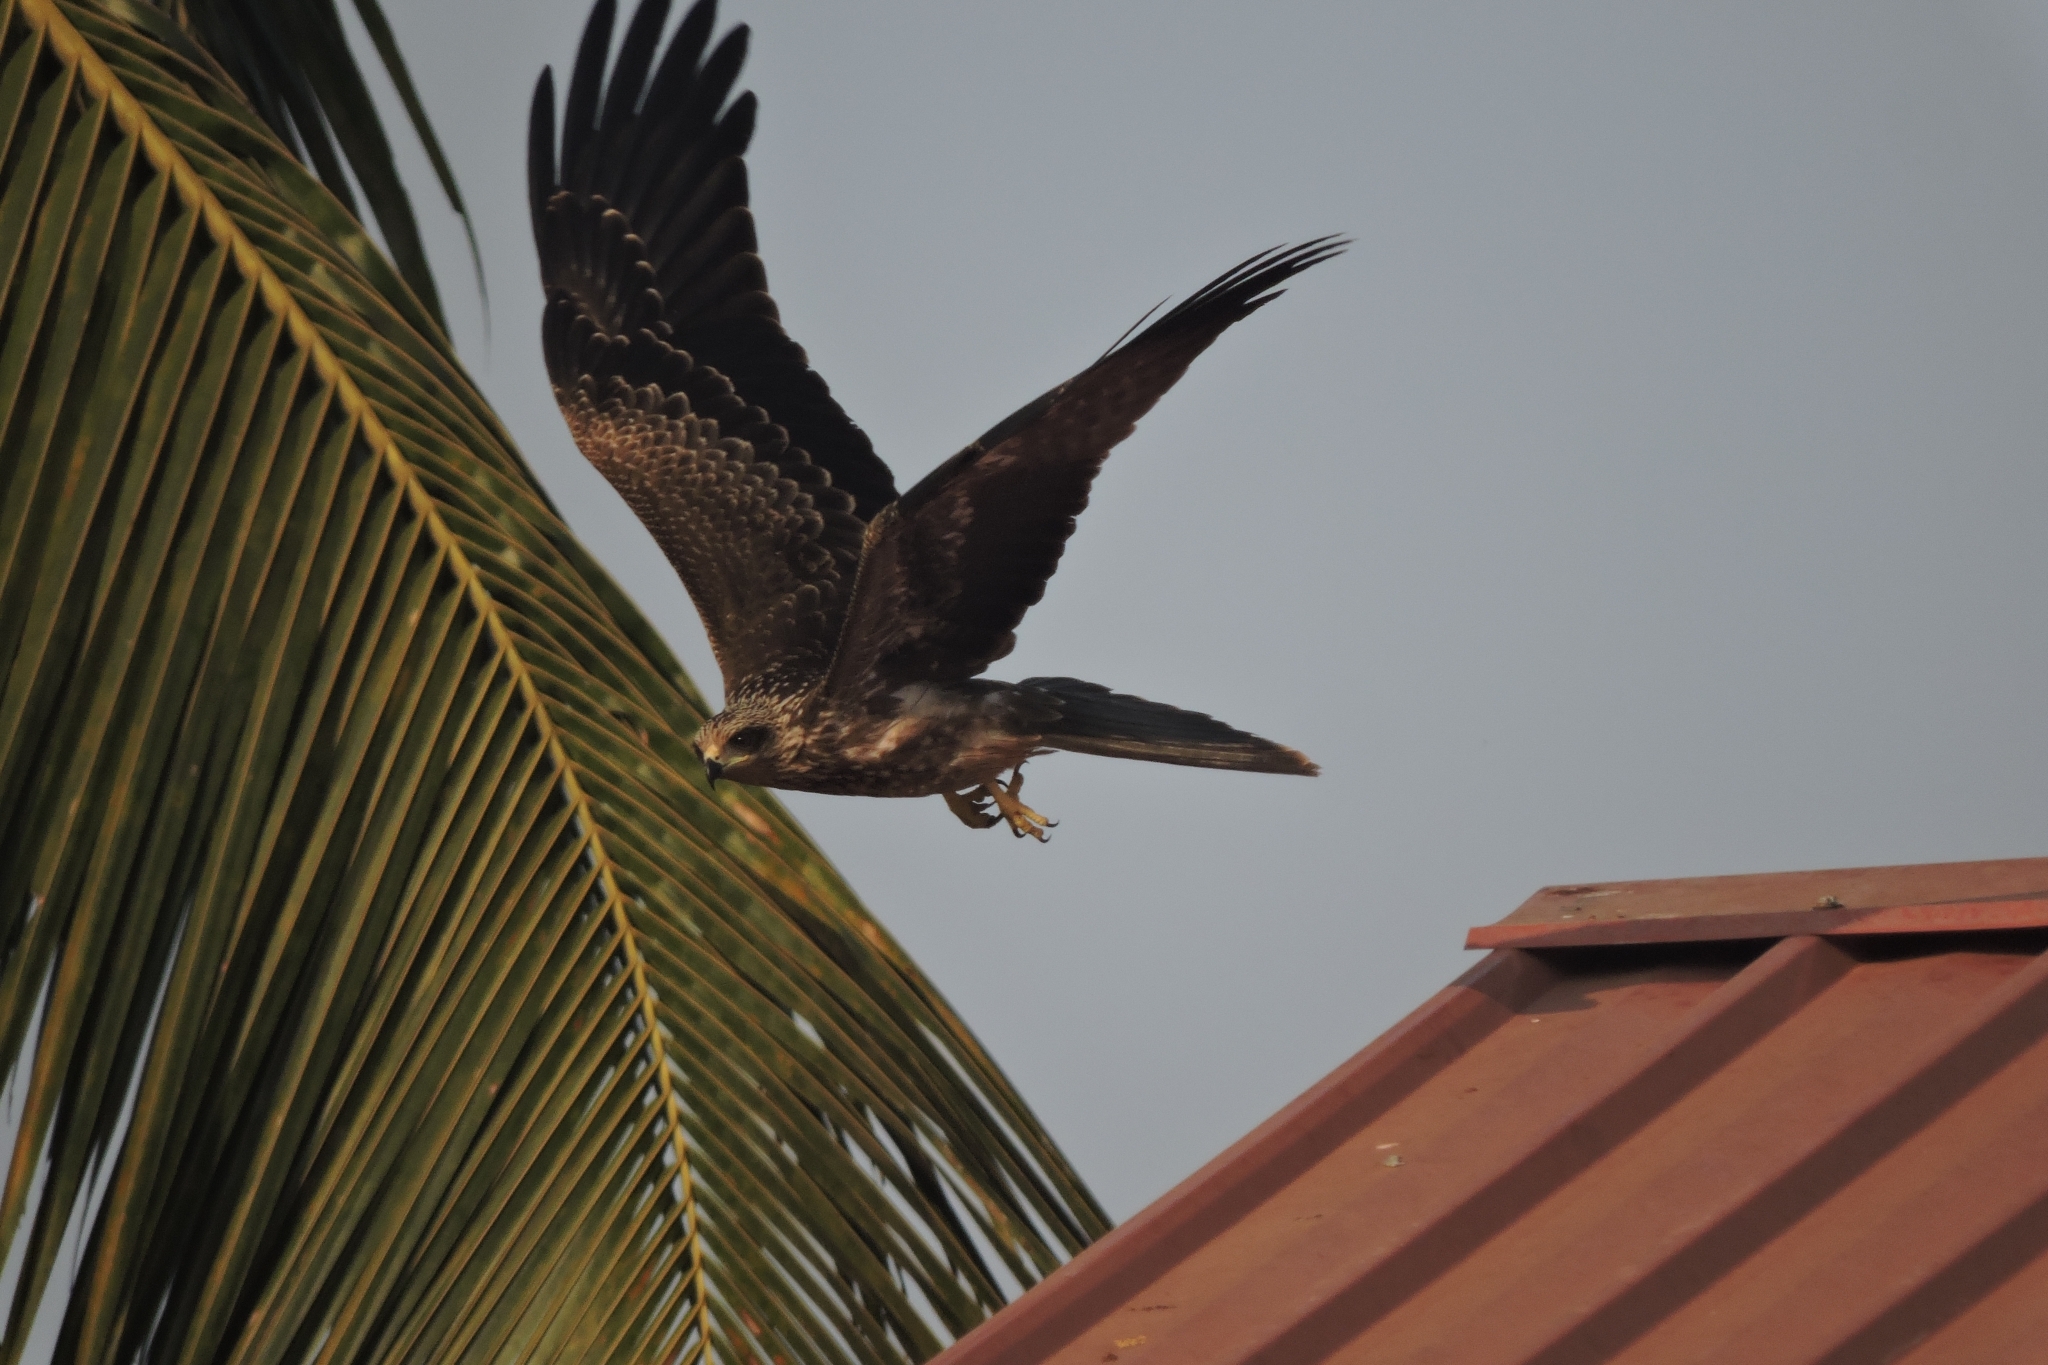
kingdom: Animalia
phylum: Chordata
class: Aves
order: Accipitriformes
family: Accipitridae
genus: Milvus
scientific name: Milvus migrans
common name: Black kite
